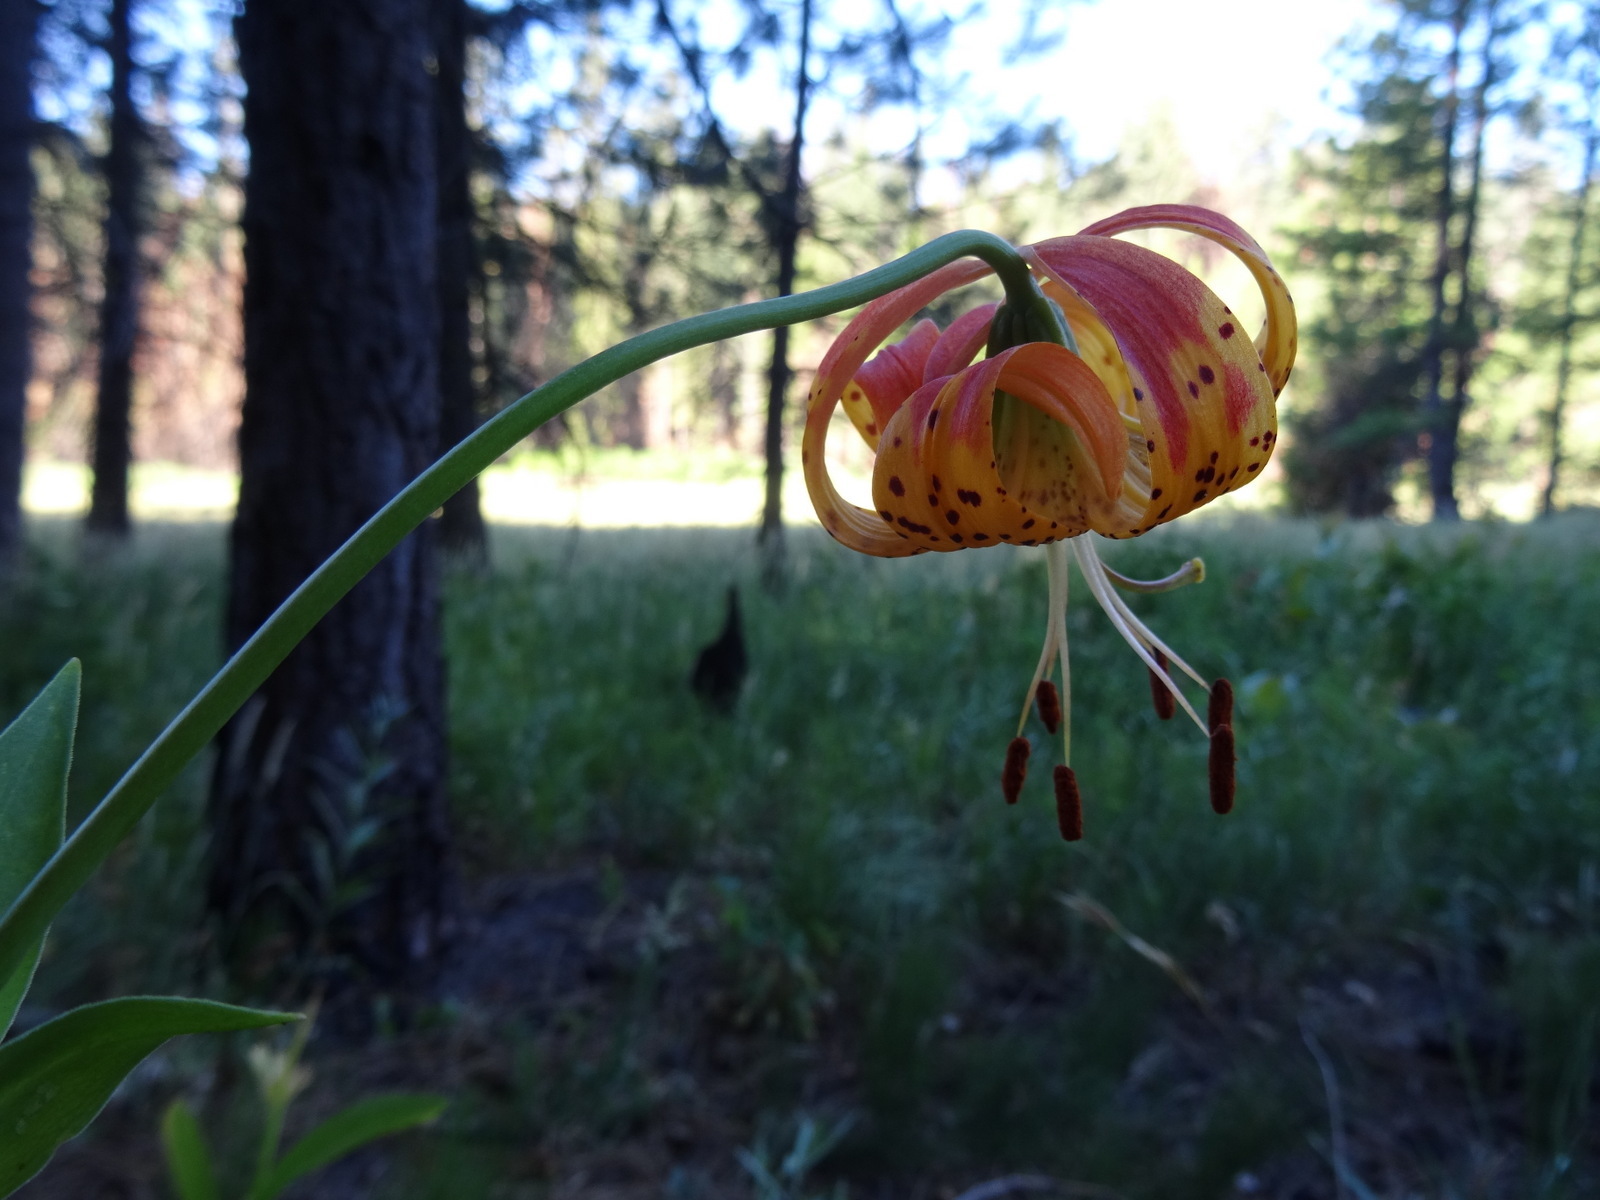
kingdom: Plantae
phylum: Tracheophyta
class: Liliopsida
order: Liliales
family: Liliaceae
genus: Lilium
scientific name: Lilium pardalinum
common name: Panther lily
